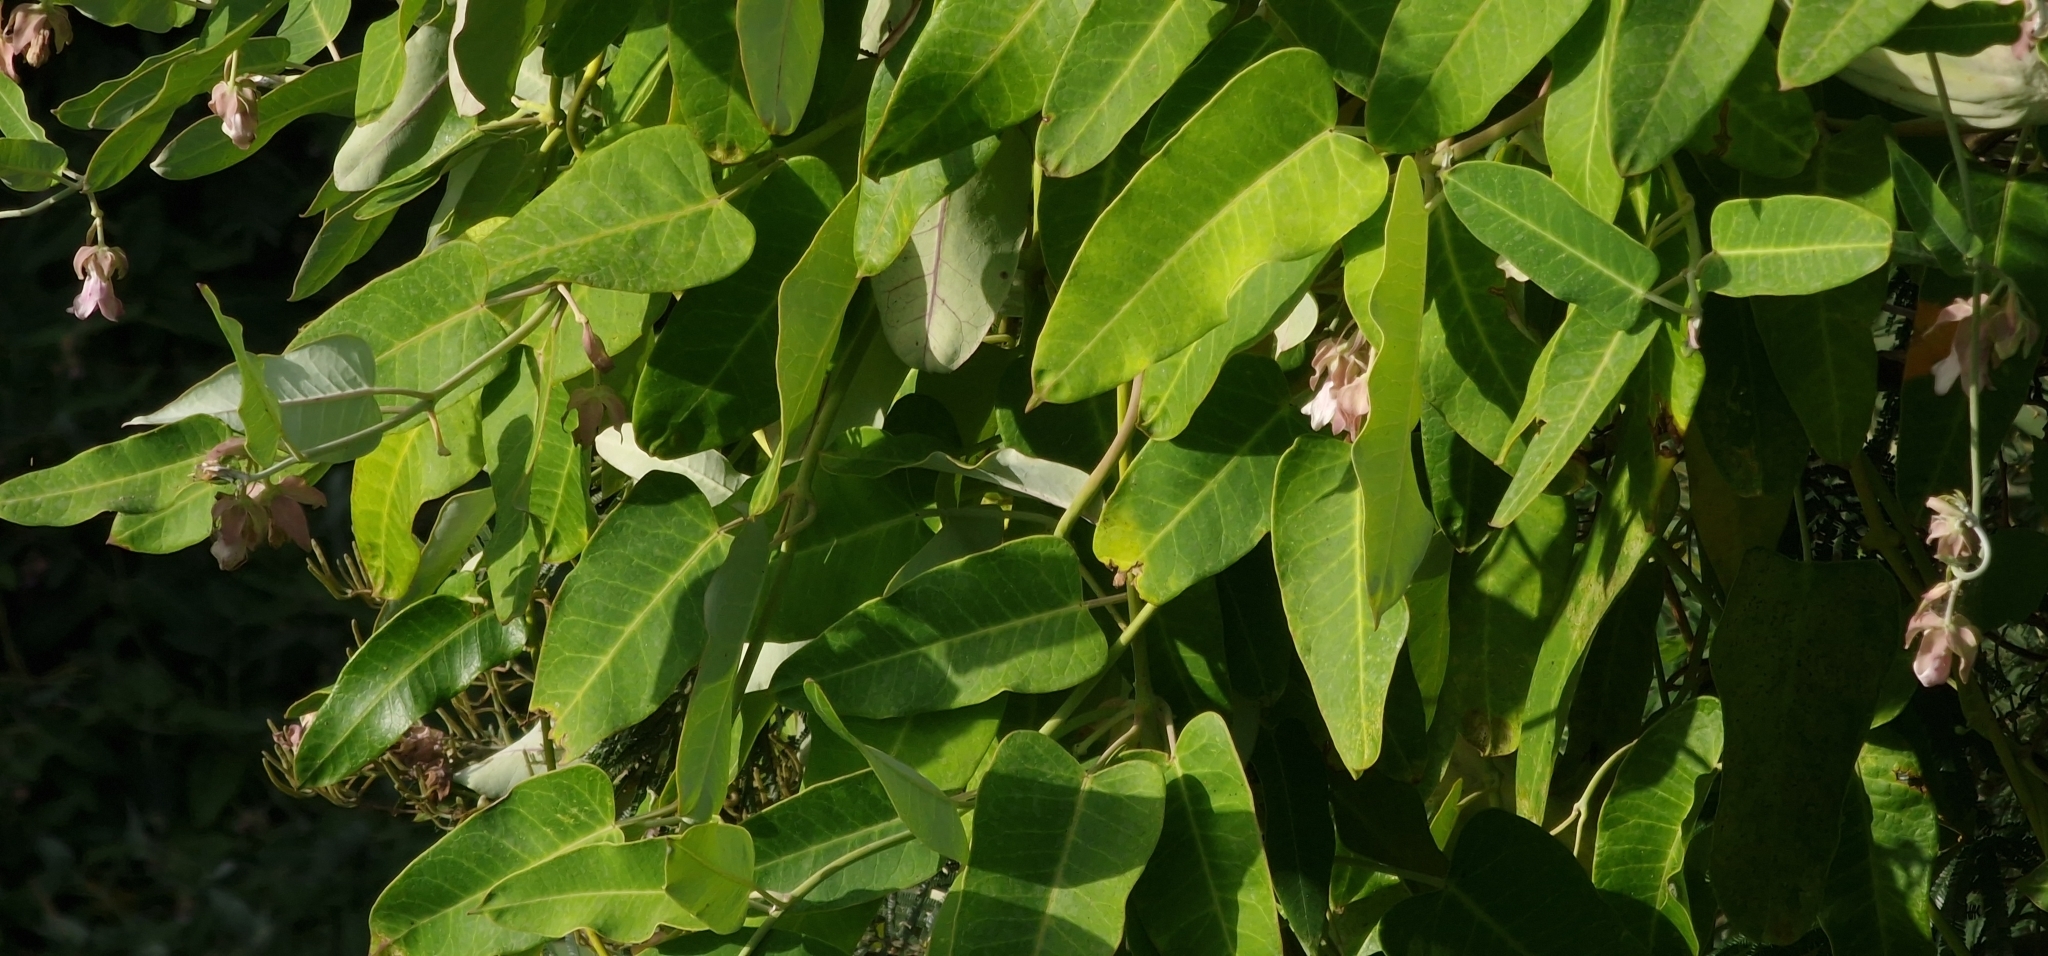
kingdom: Plantae
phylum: Tracheophyta
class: Magnoliopsida
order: Gentianales
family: Apocynaceae
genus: Araujia
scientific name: Araujia sericifera
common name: White bladderflower
